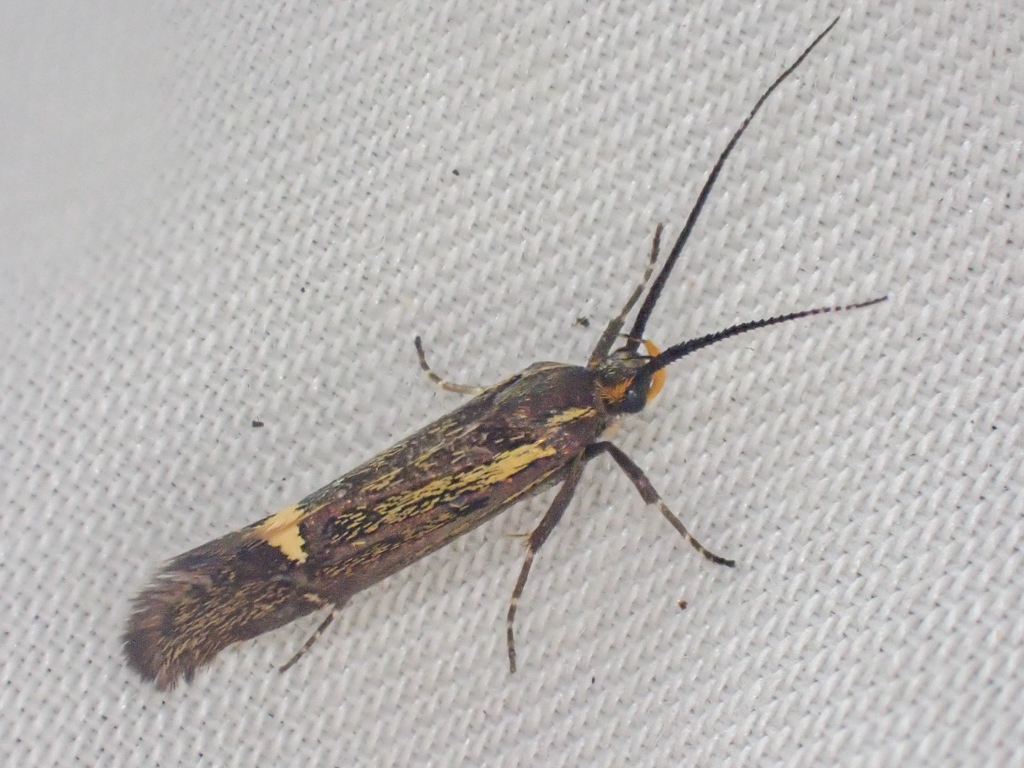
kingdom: Animalia
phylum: Arthropoda
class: Insecta
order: Lepidoptera
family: Oecophoridae
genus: Dafa
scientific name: Dafa Esperia sulphurella
